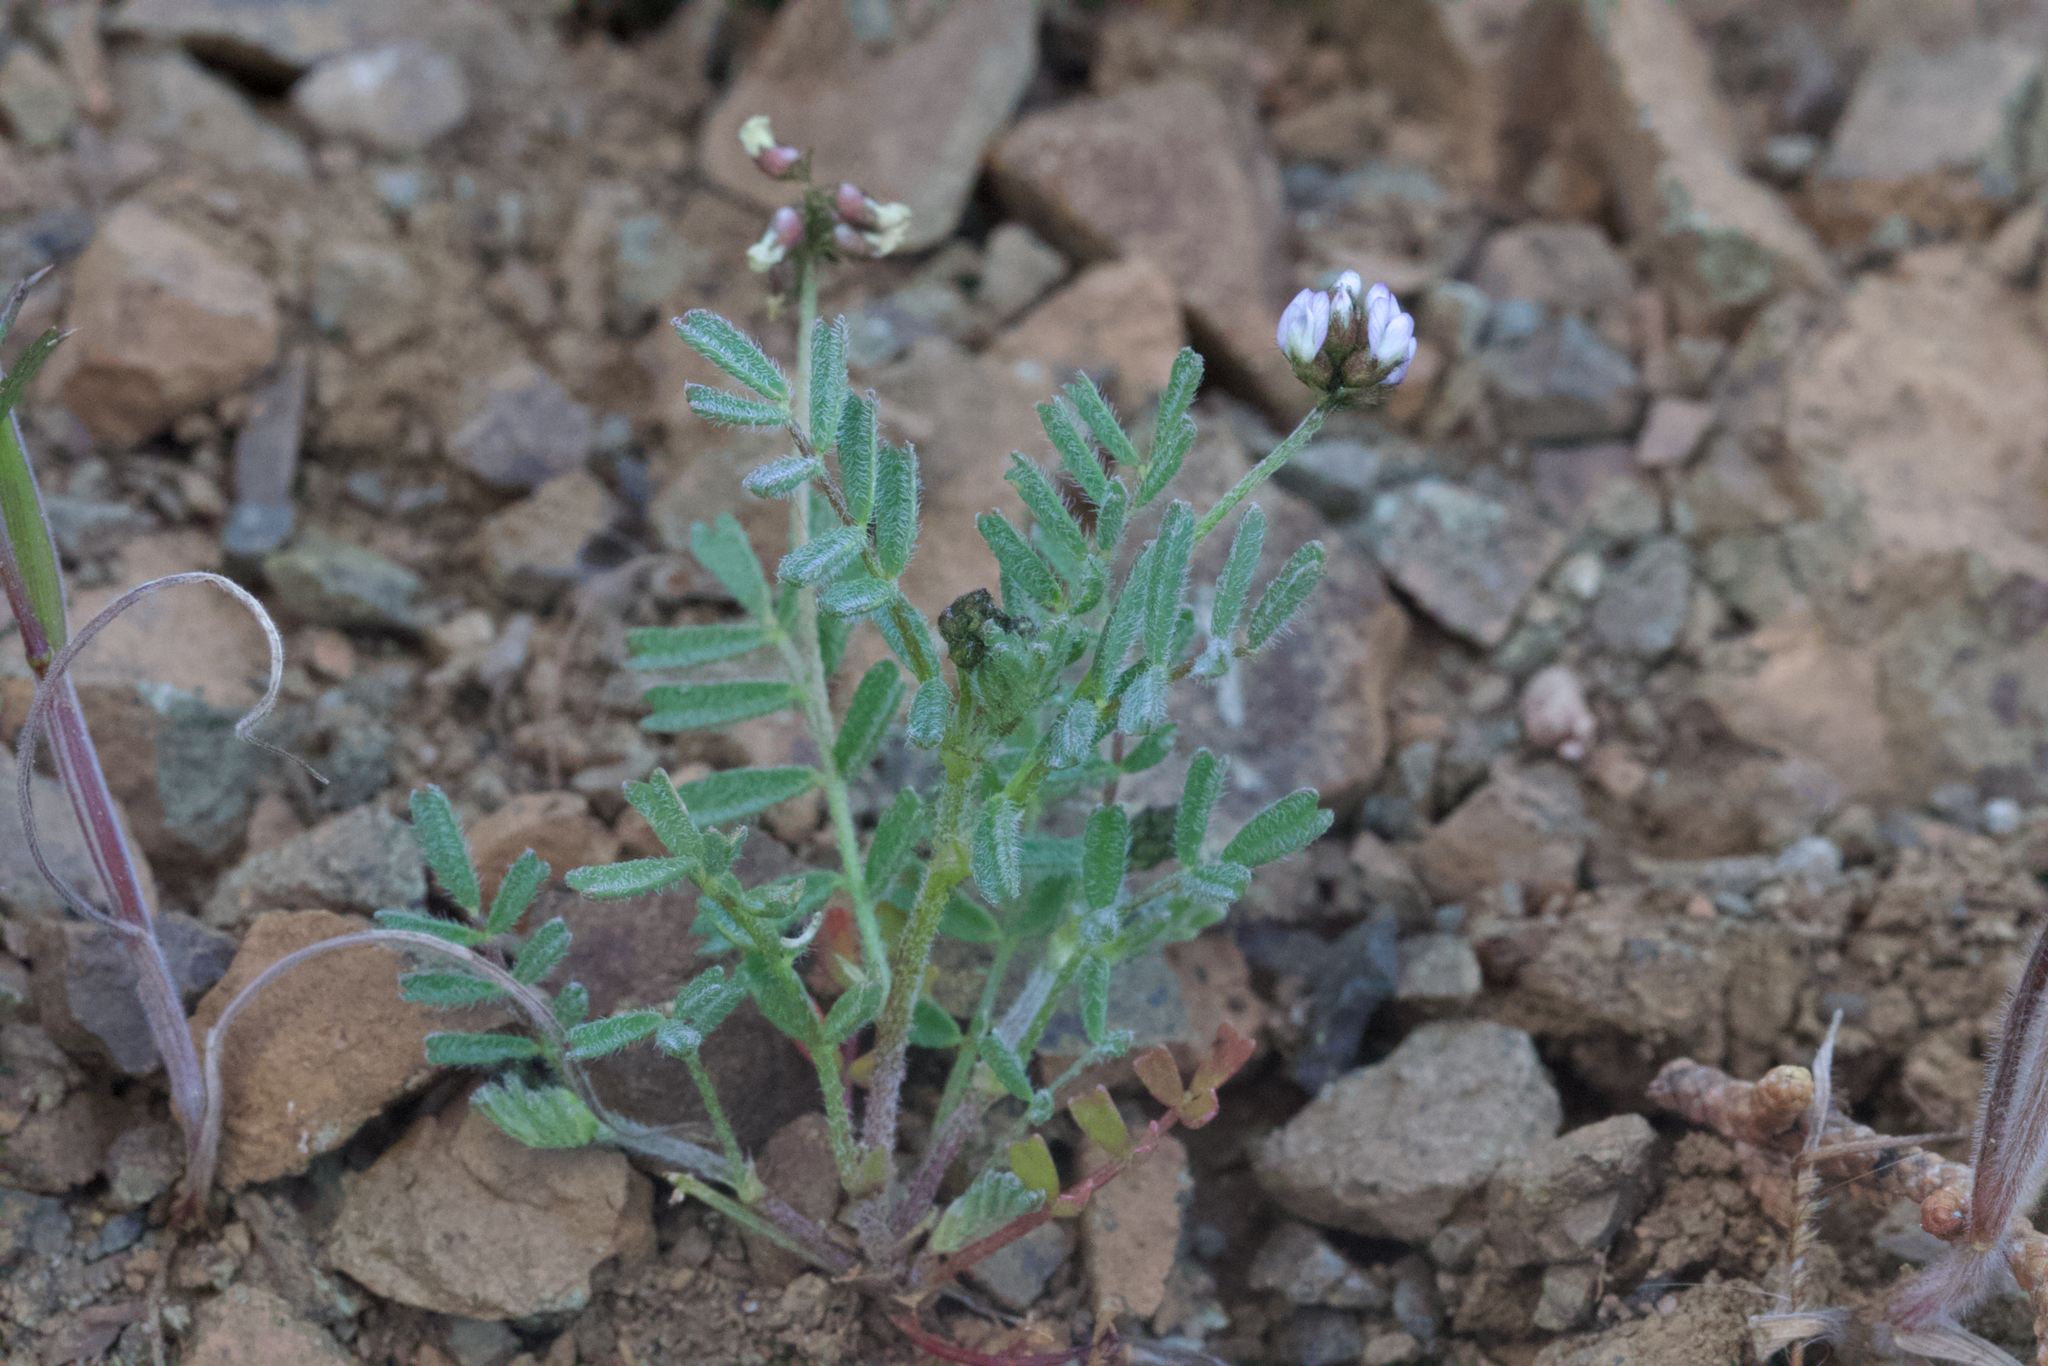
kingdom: Plantae
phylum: Tracheophyta
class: Magnoliopsida
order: Fabales
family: Fabaceae
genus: Astragalus
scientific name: Astragalus gambelianus
